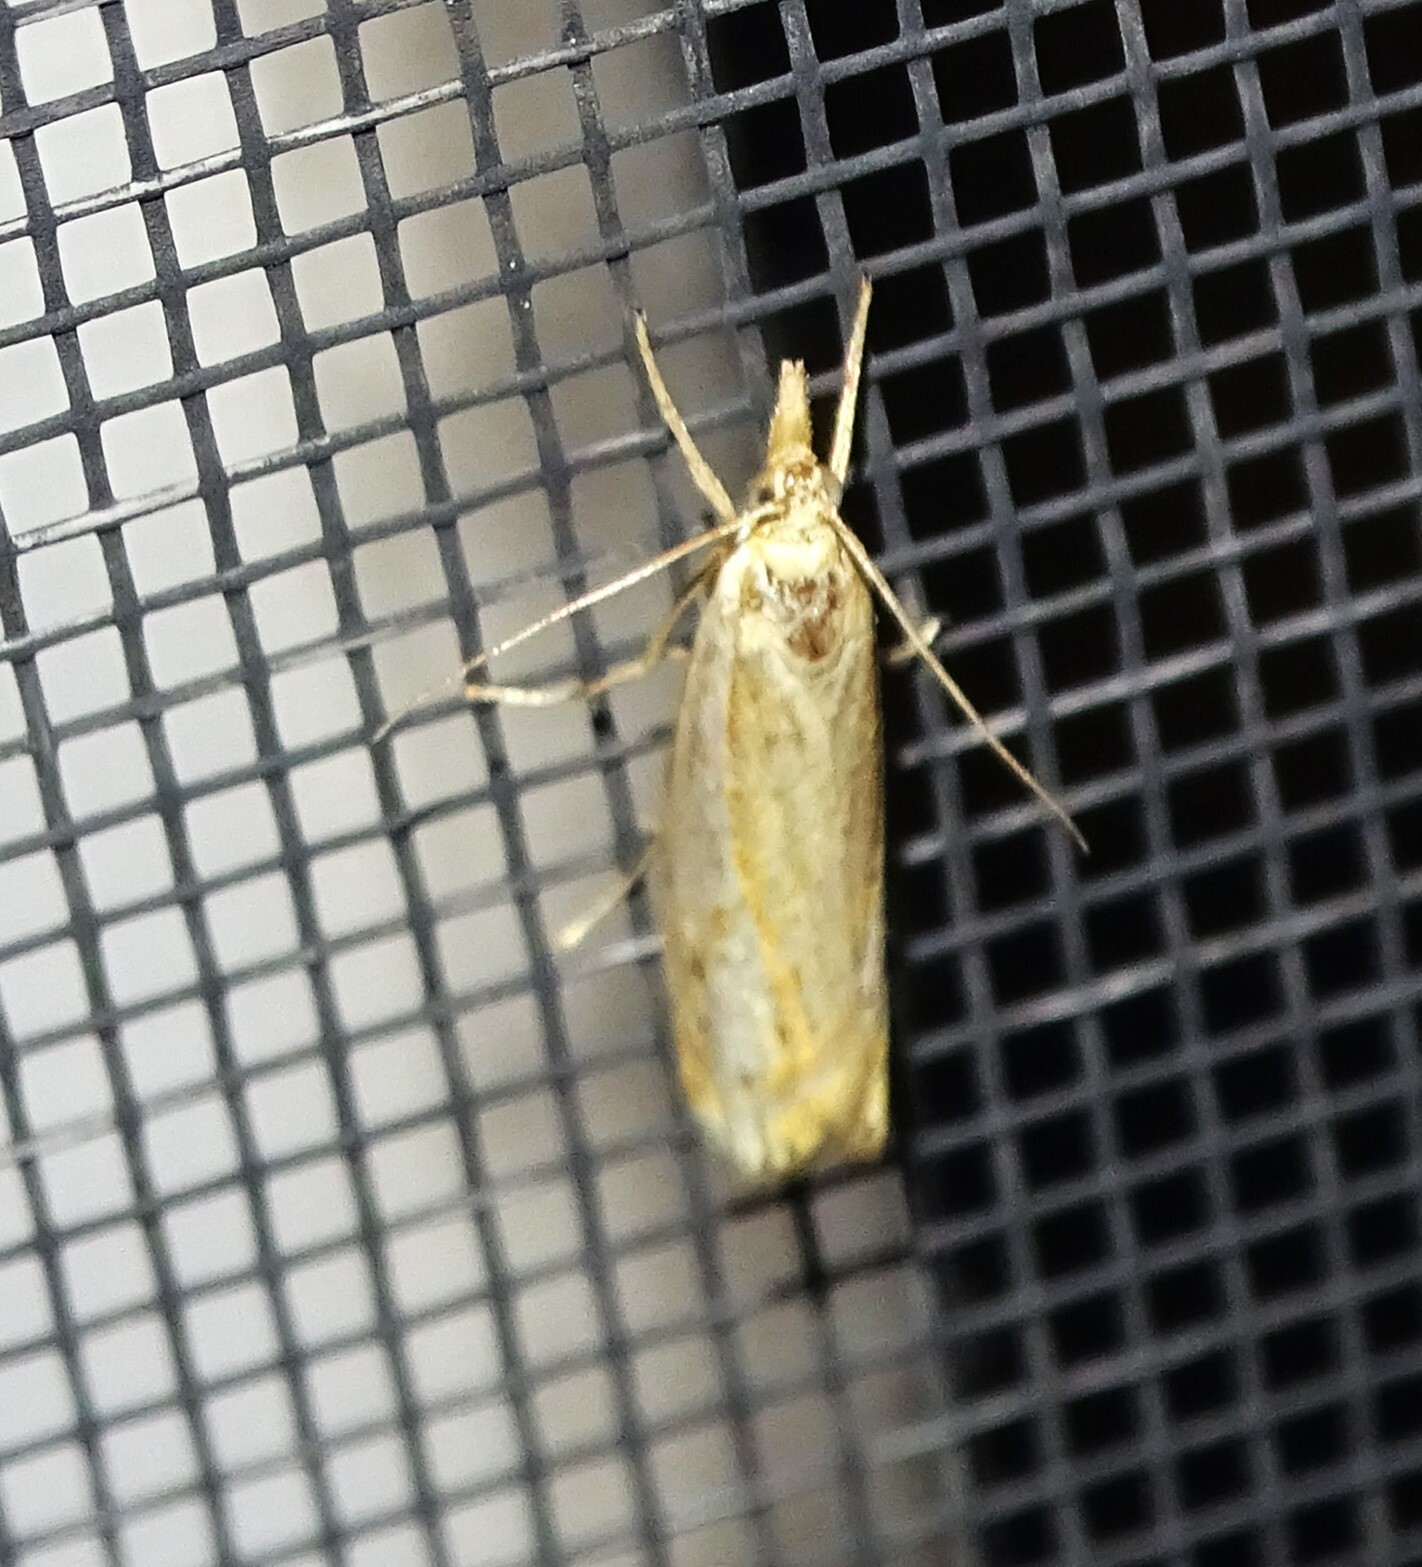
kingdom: Animalia
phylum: Arthropoda
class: Insecta
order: Lepidoptera
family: Crambidae
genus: Crambus
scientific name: Crambus
